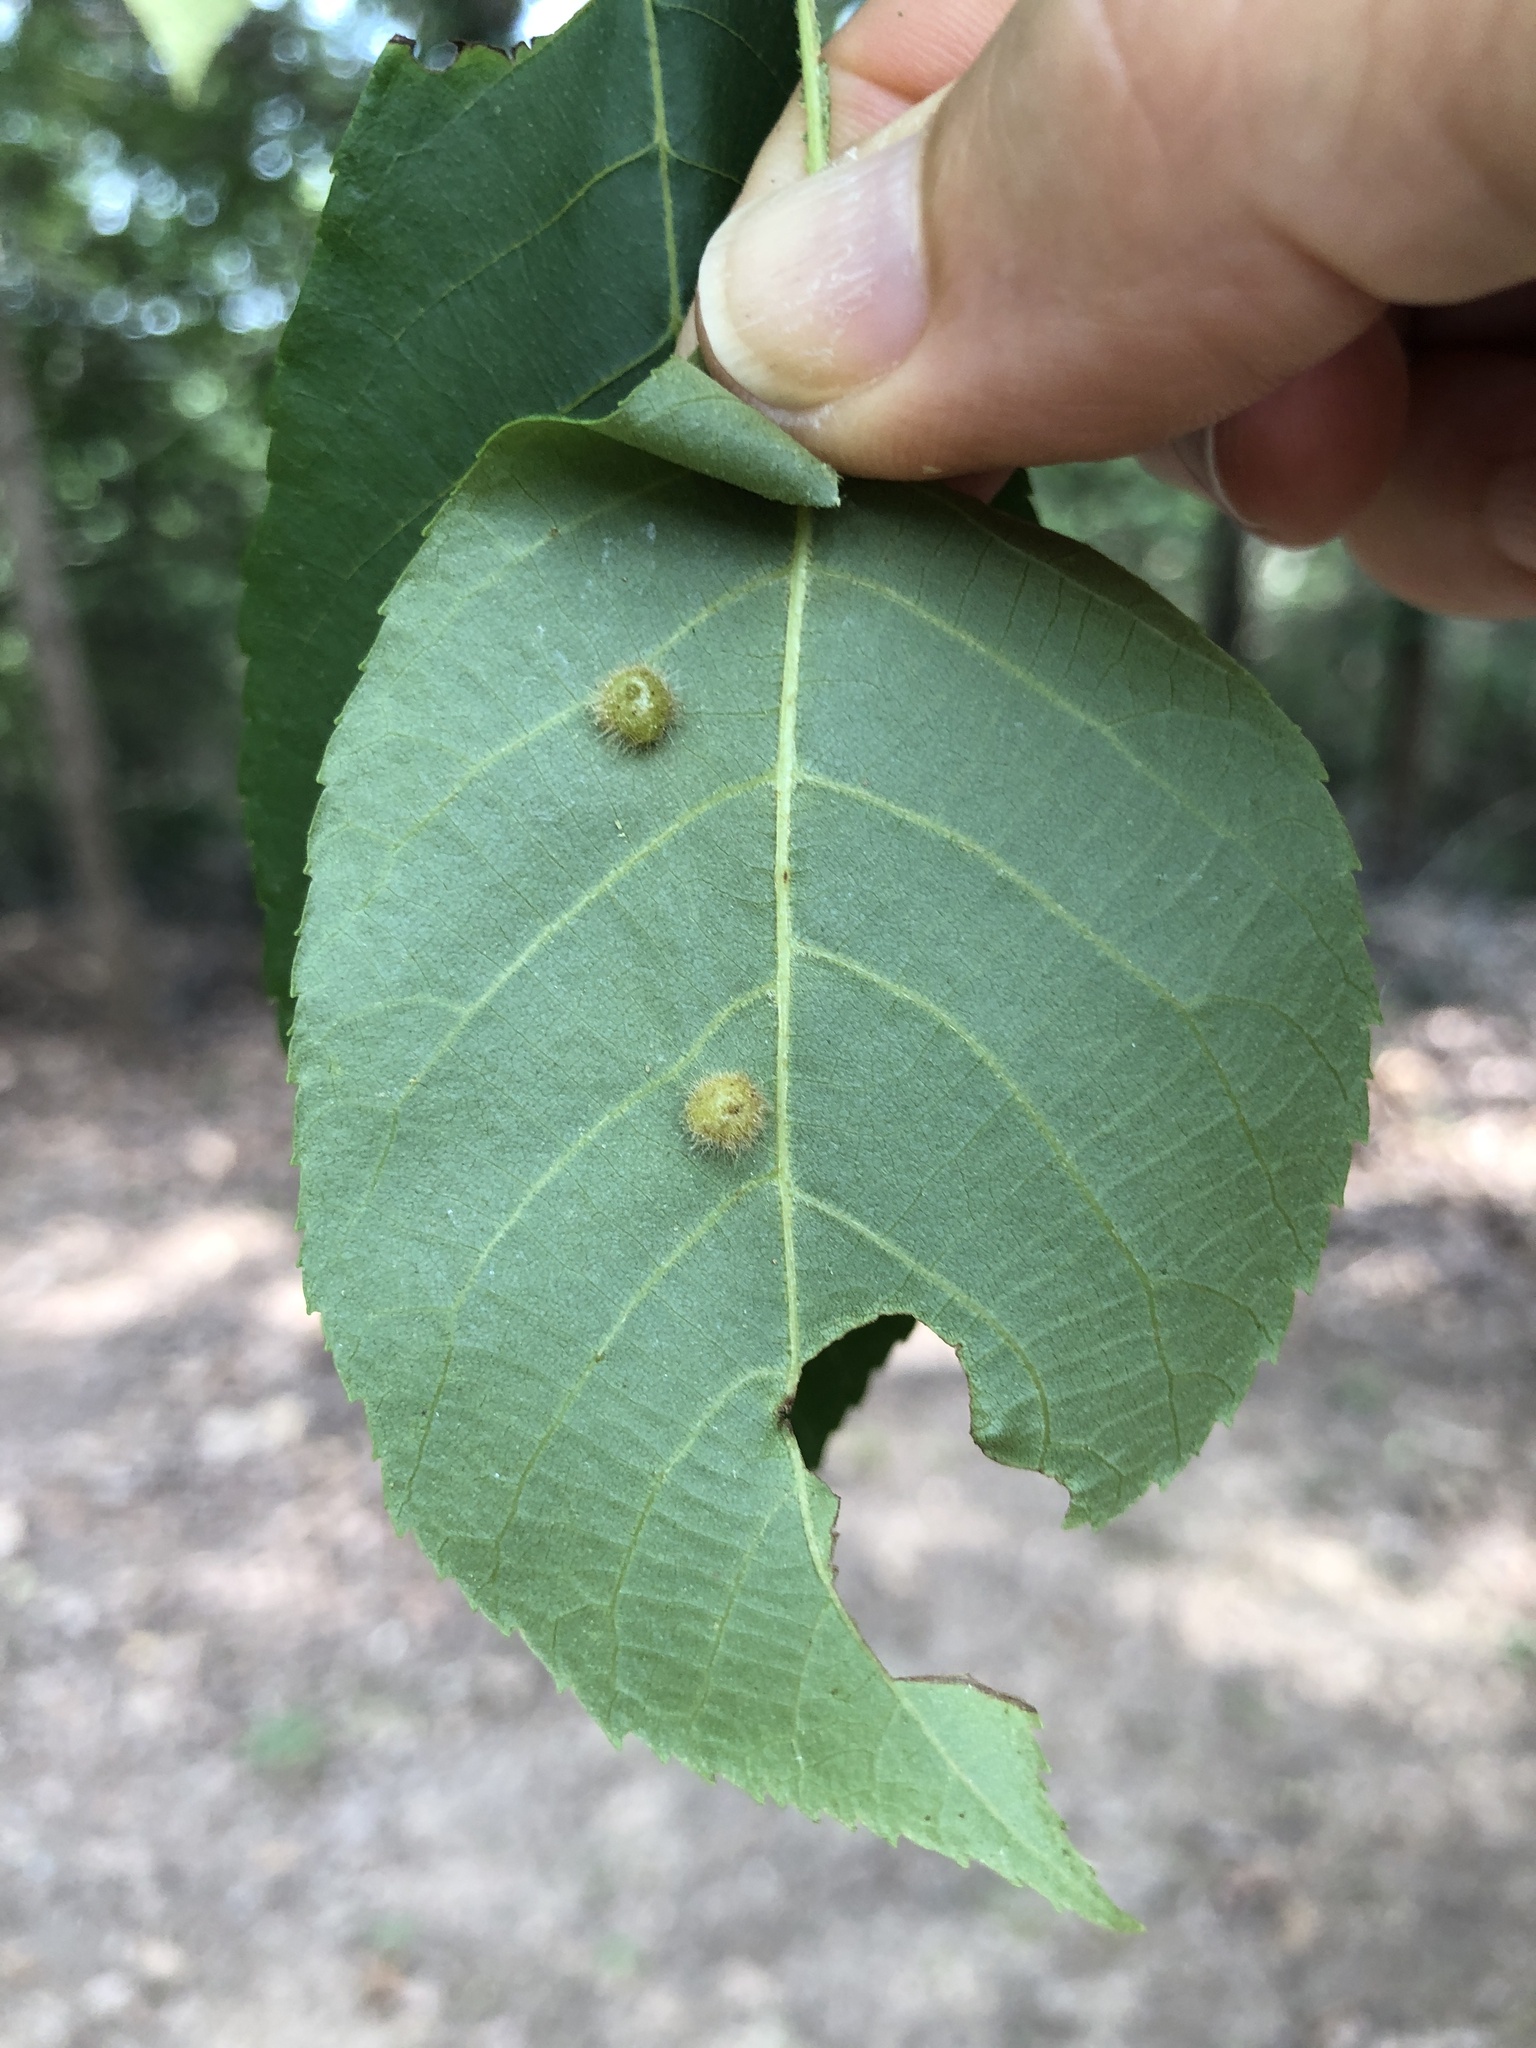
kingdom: Animalia
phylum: Arthropoda
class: Insecta
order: Diptera
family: Cecidomyiidae
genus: Caryomyia
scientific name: Caryomyia thompsoni
